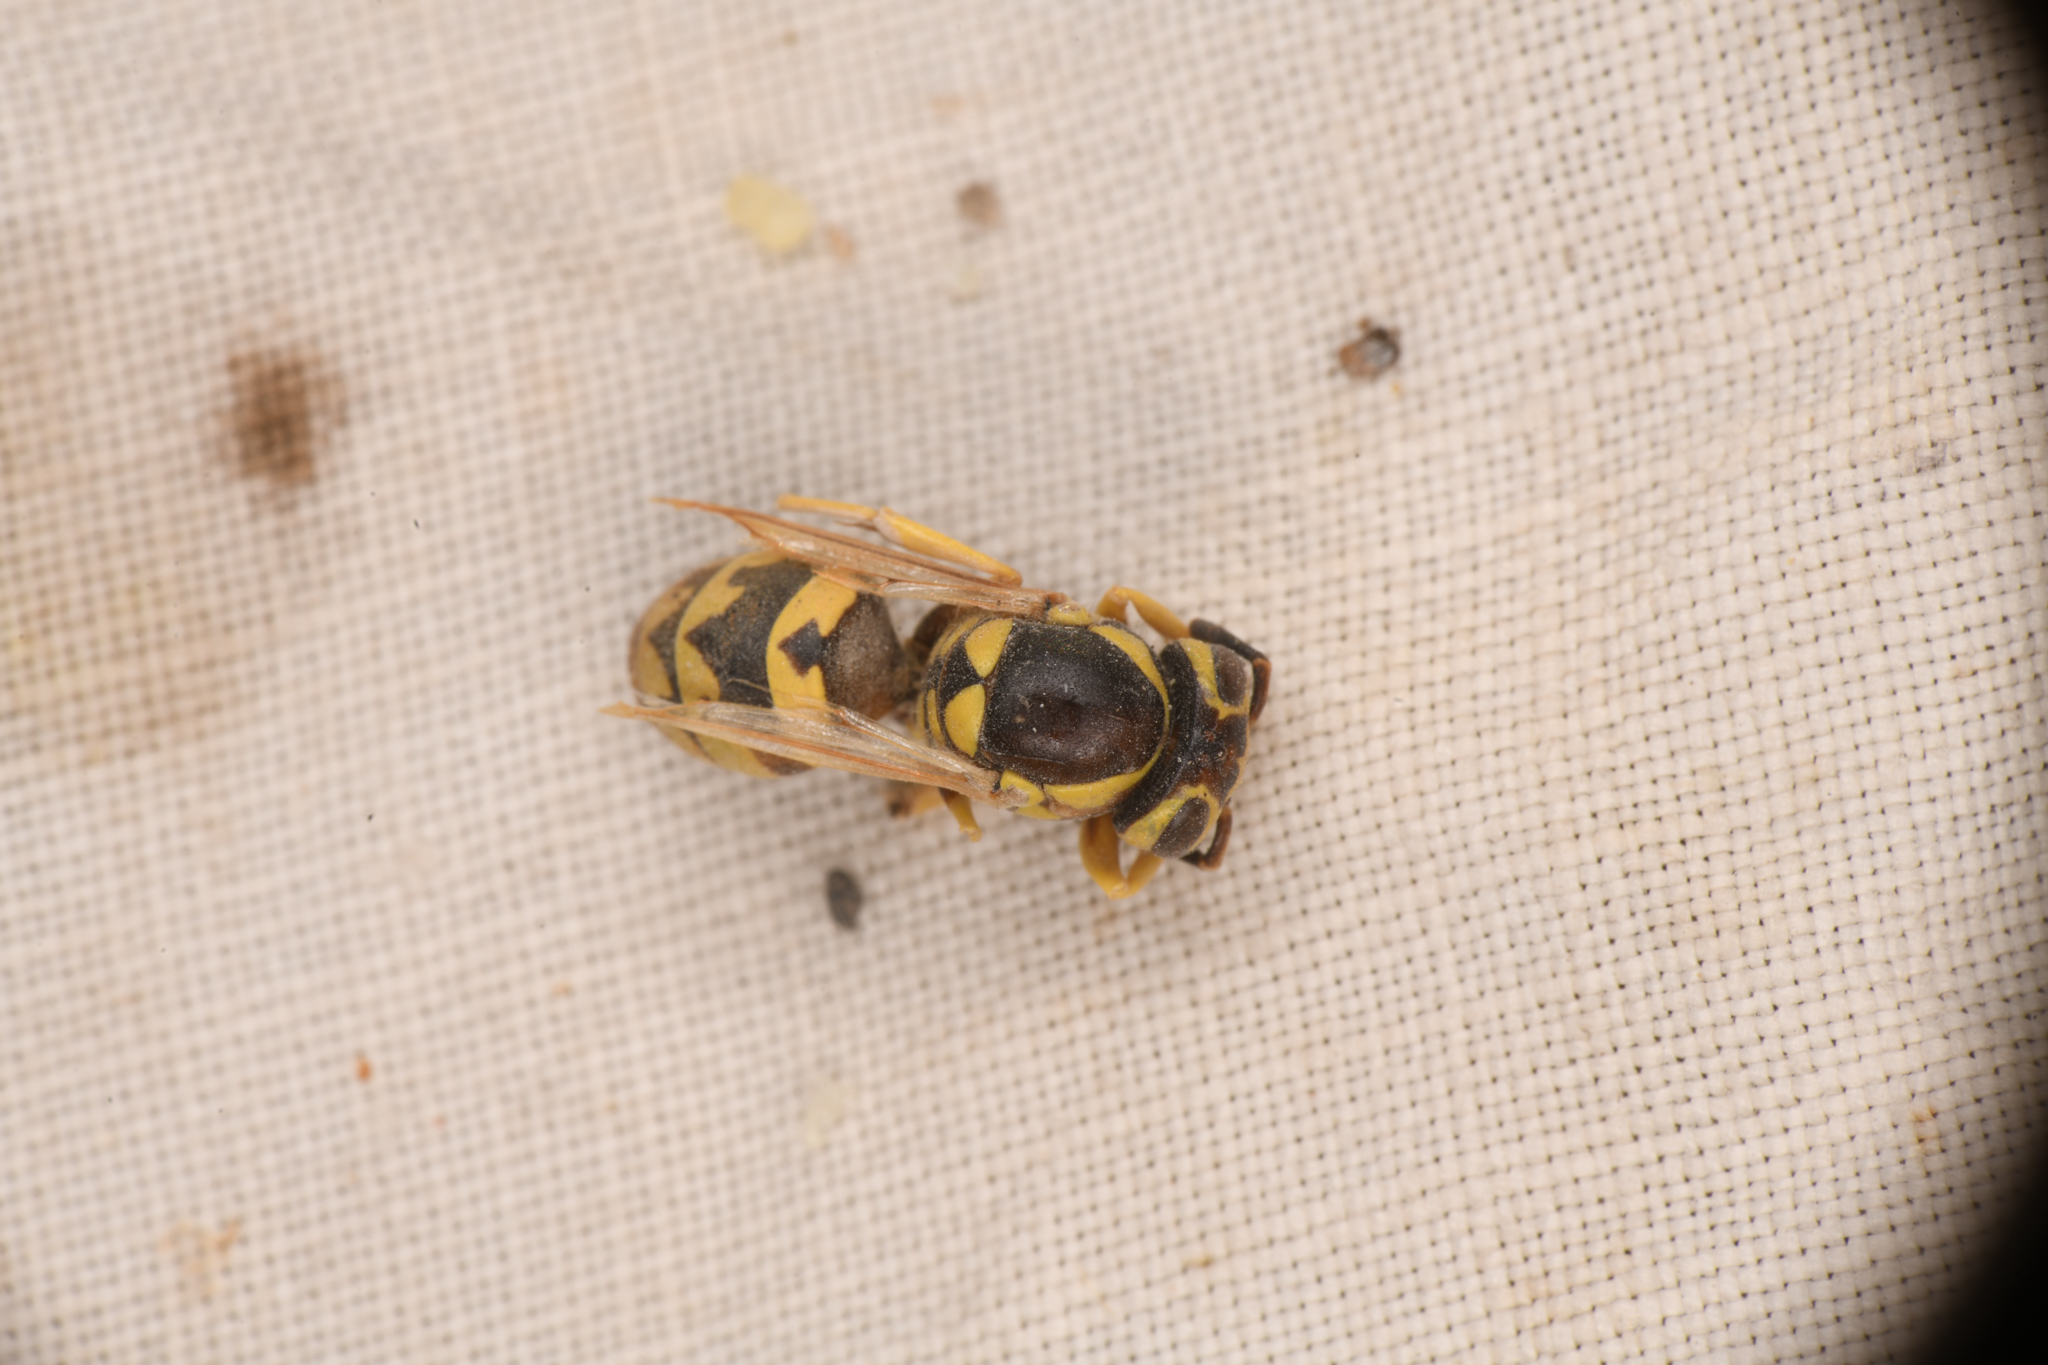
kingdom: Animalia
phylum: Arthropoda
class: Insecta
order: Hymenoptera
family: Vespidae
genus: Vespula
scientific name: Vespula pensylvanica
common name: Western yellowjacket
